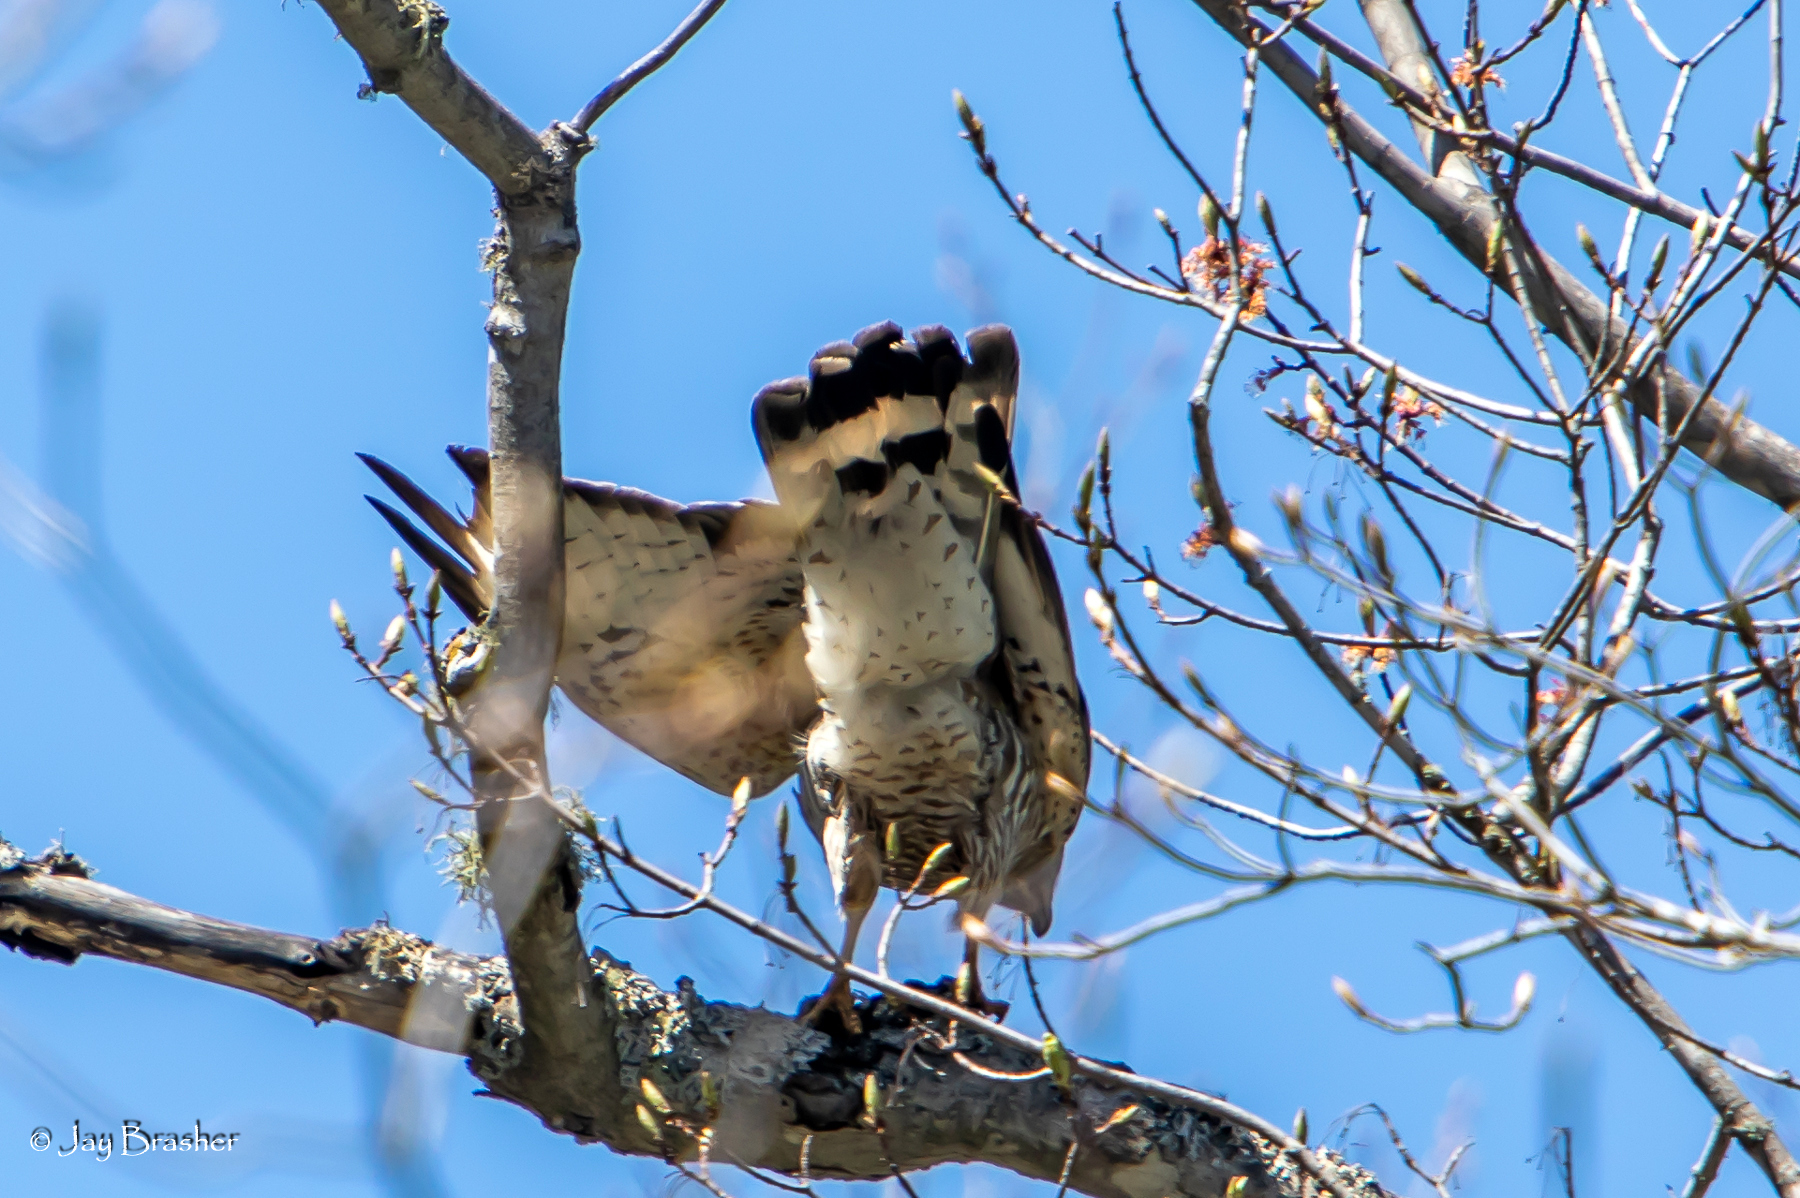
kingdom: Animalia
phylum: Chordata
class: Aves
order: Accipitriformes
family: Accipitridae
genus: Buteo
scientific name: Buteo platypterus
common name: Broad-winged hawk
